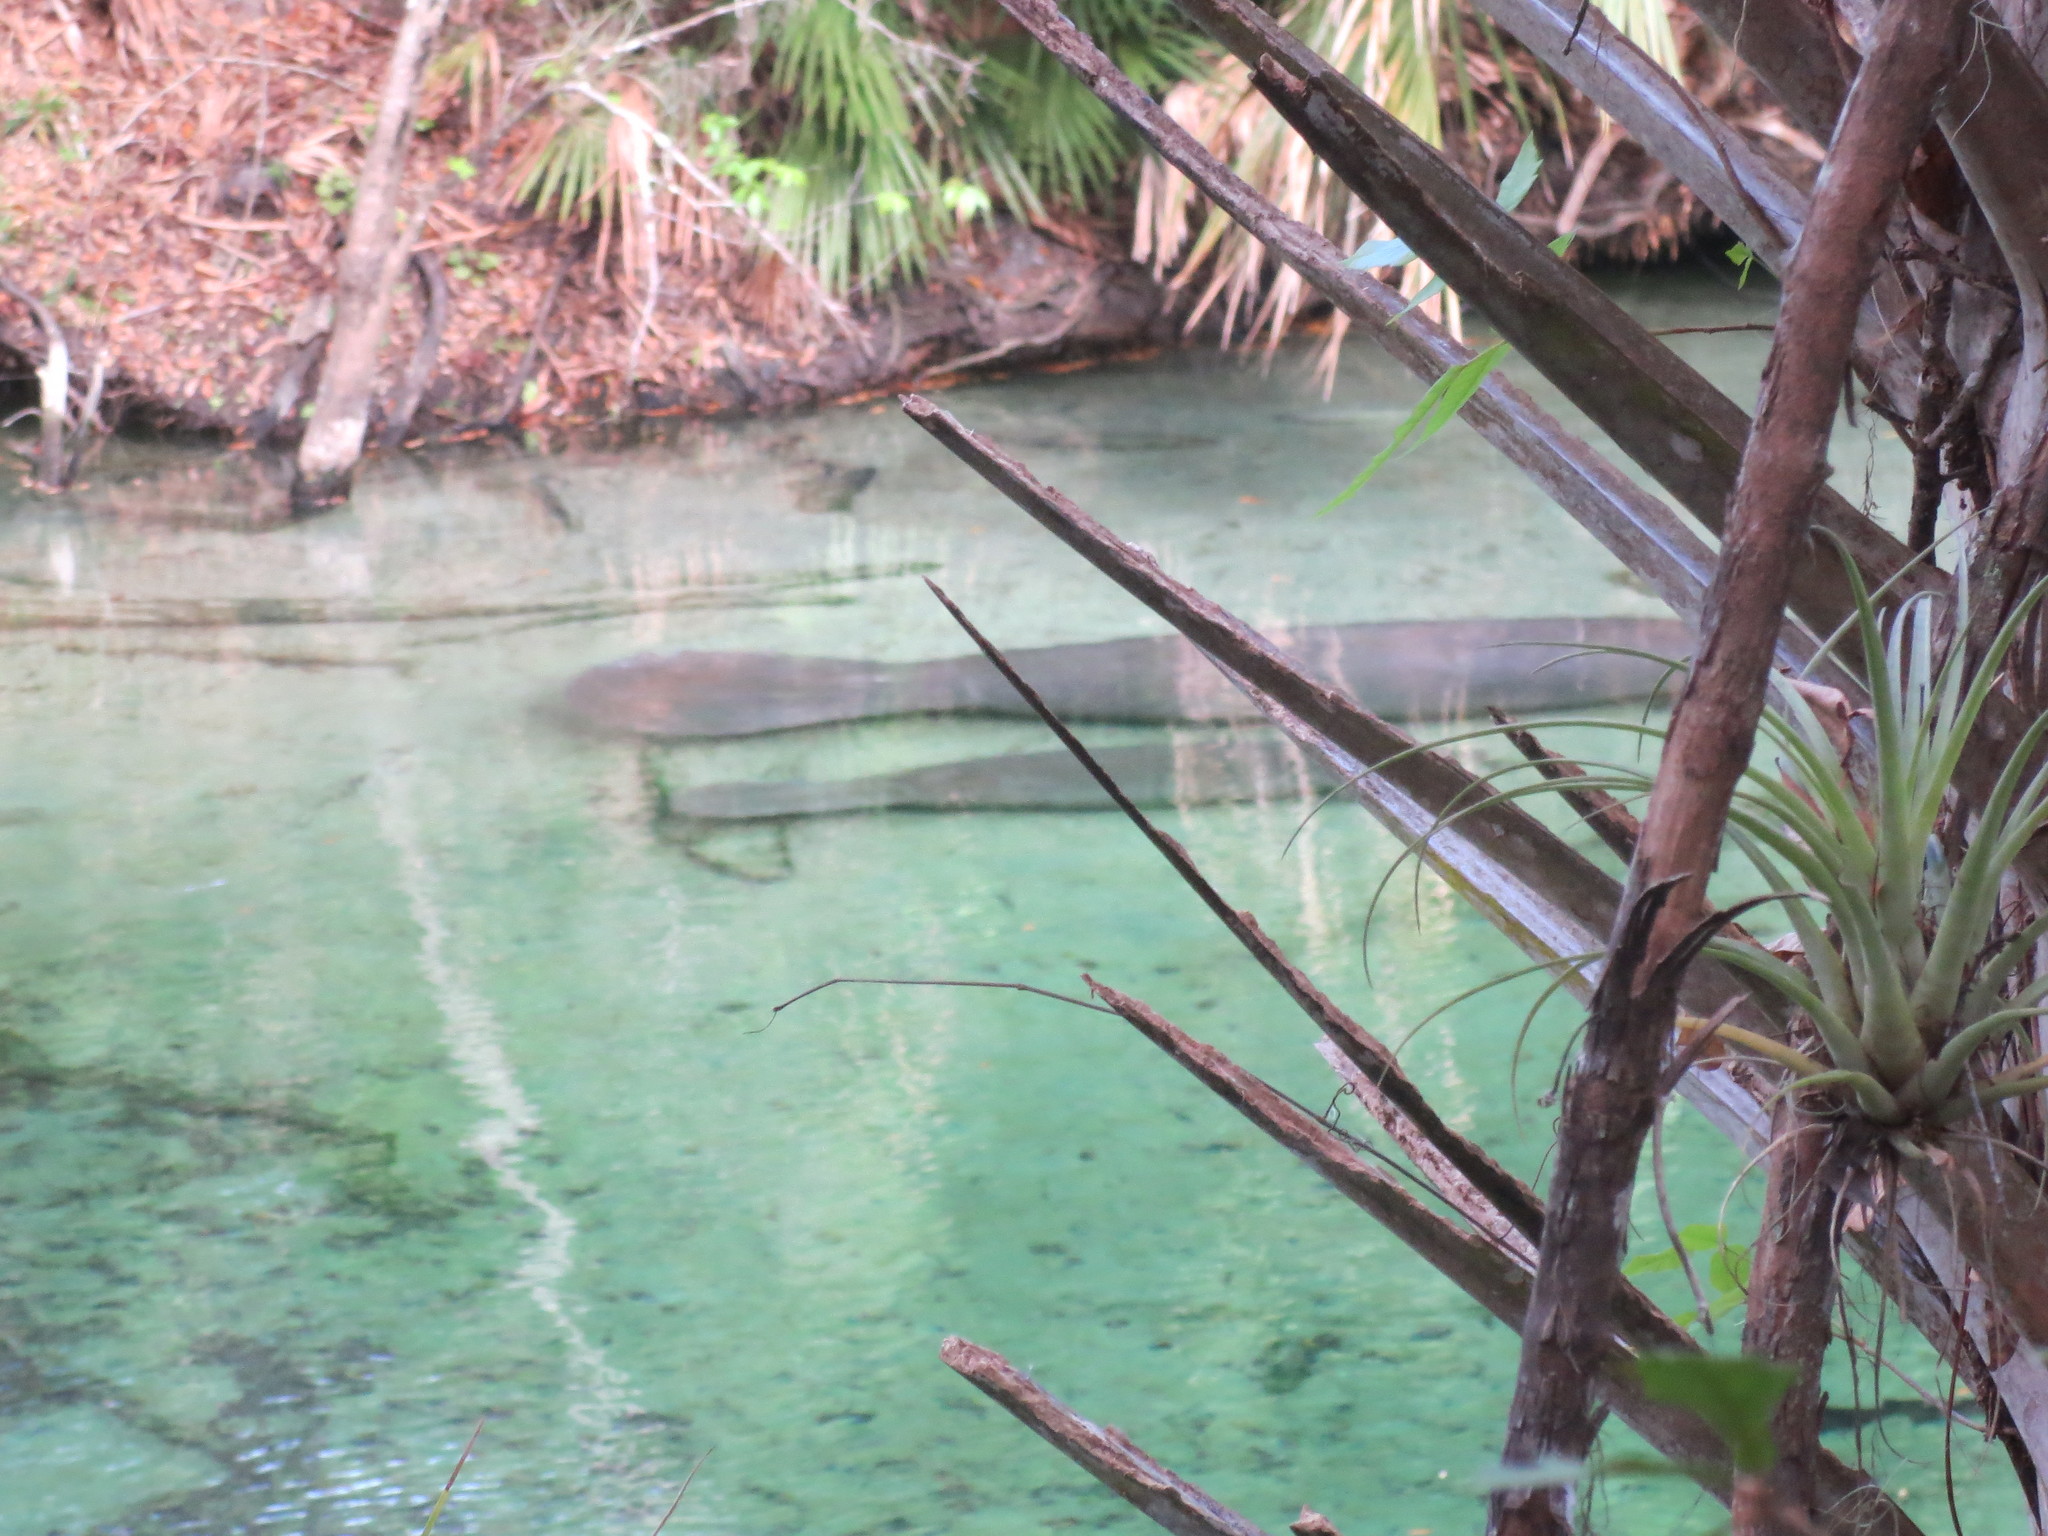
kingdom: Animalia
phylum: Chordata
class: Mammalia
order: Sirenia
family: Trichechidae
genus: Trichechus
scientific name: Trichechus manatus
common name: West indian manatee
